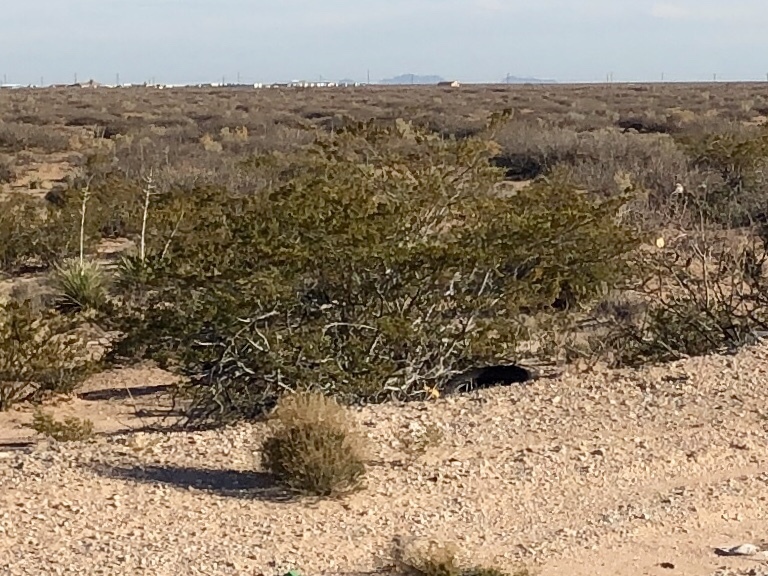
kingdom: Plantae
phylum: Tracheophyta
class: Magnoliopsida
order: Zygophyllales
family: Zygophyllaceae
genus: Larrea
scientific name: Larrea tridentata
